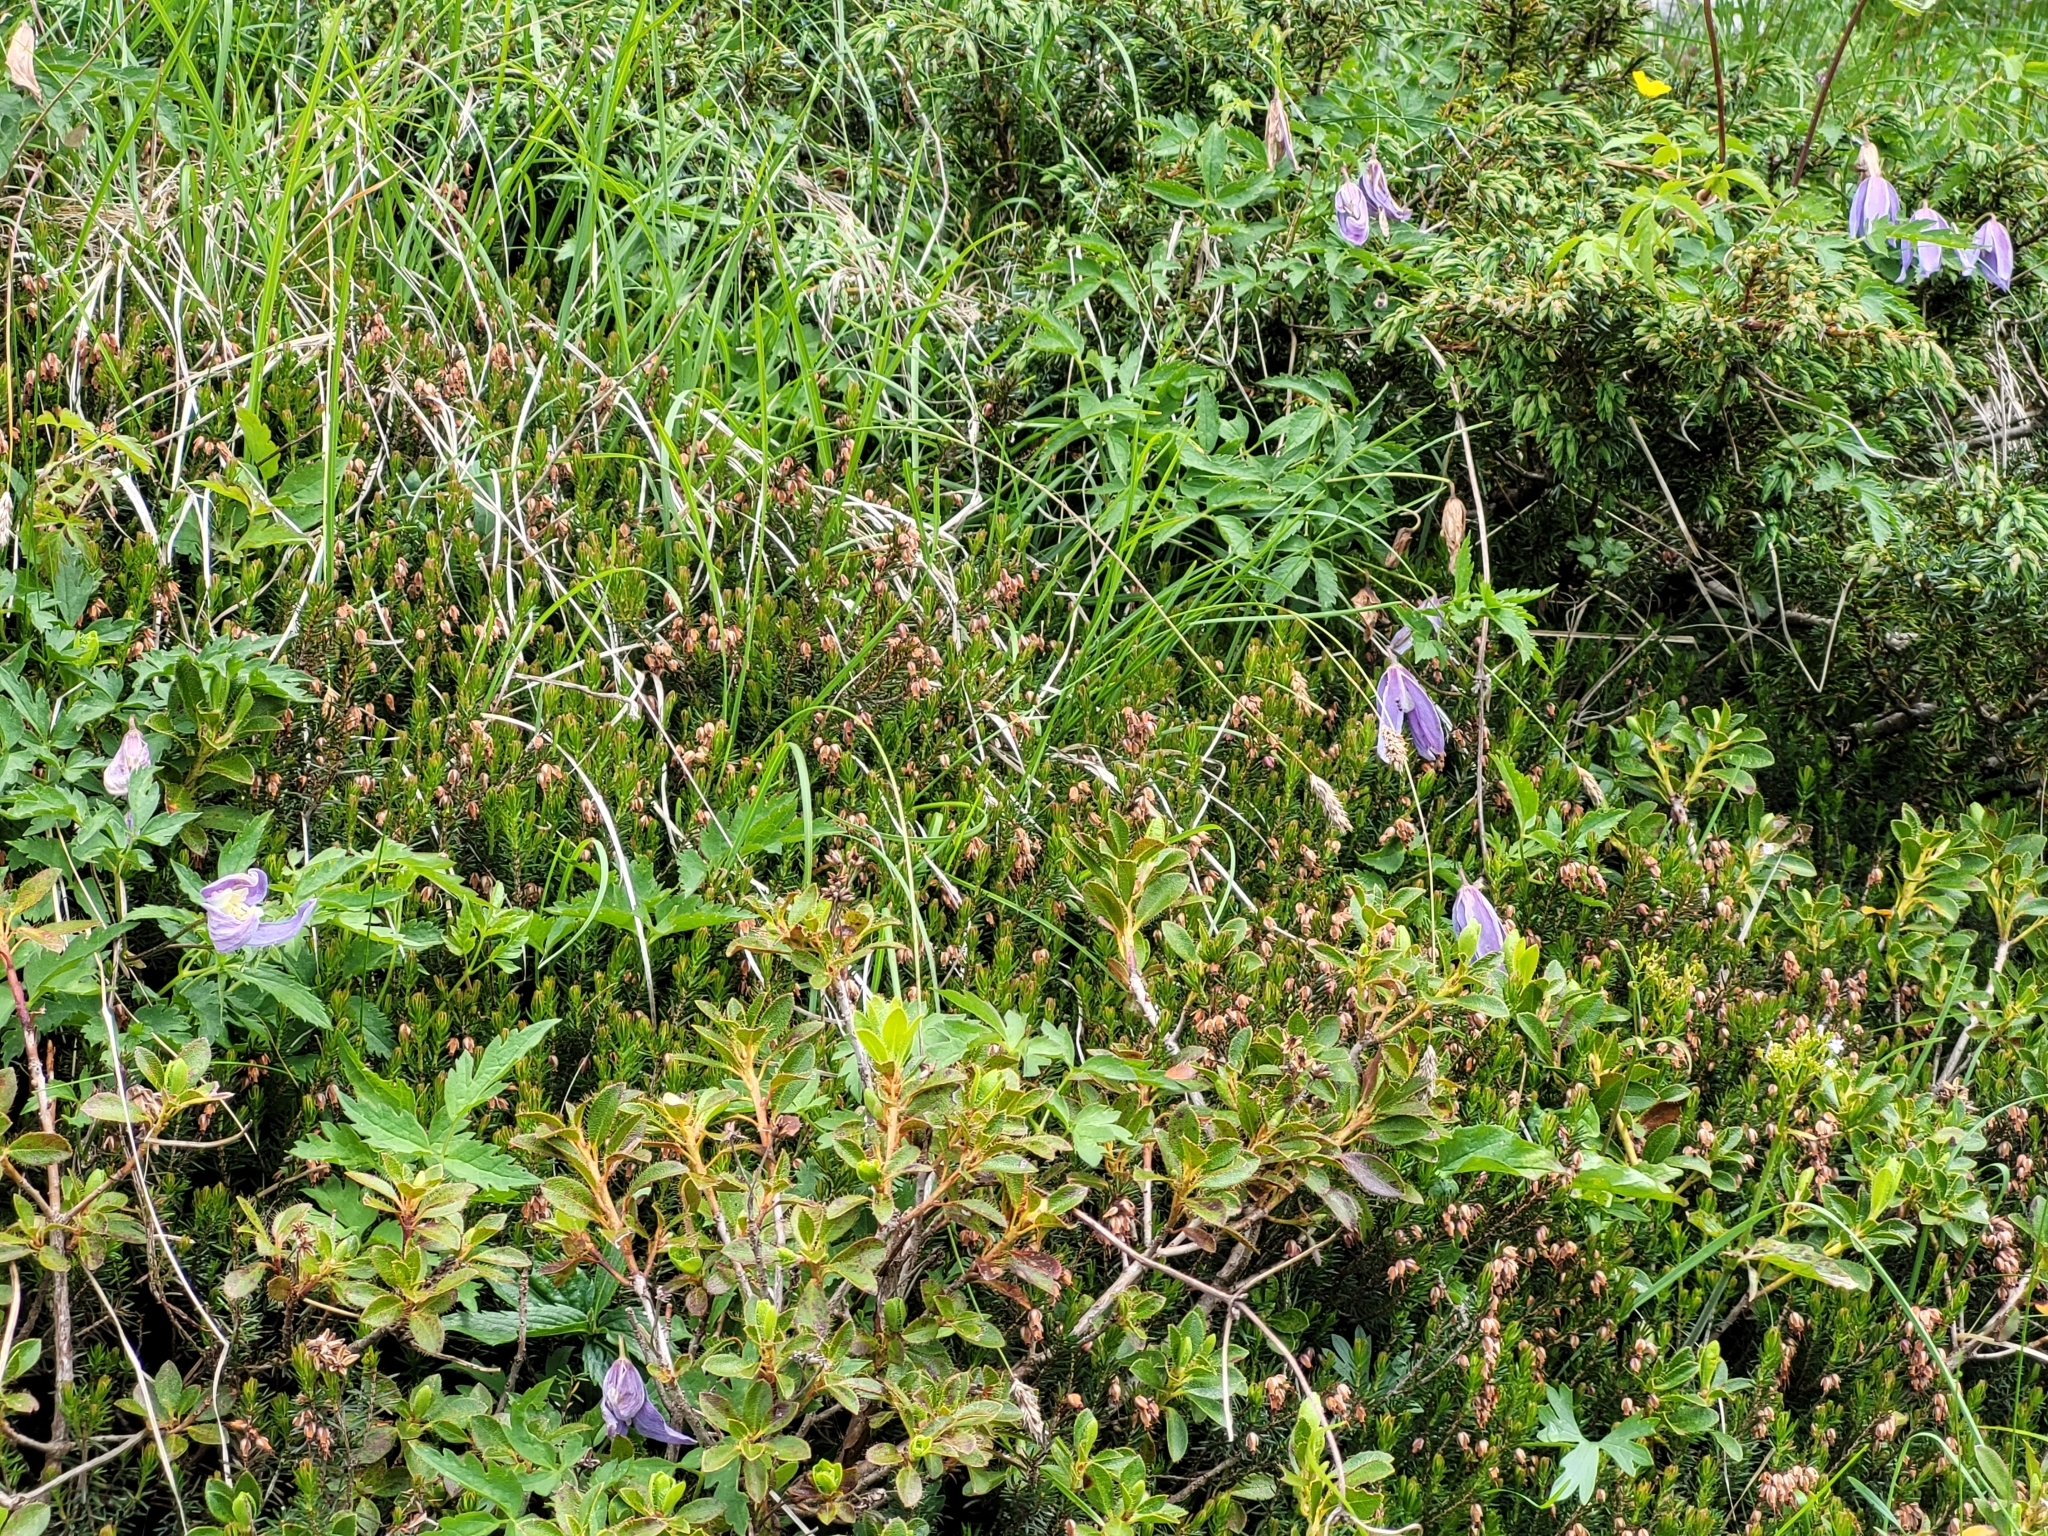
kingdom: Plantae
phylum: Tracheophyta
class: Magnoliopsida
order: Ranunculales
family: Ranunculaceae
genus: Clematis
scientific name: Clematis alpina
